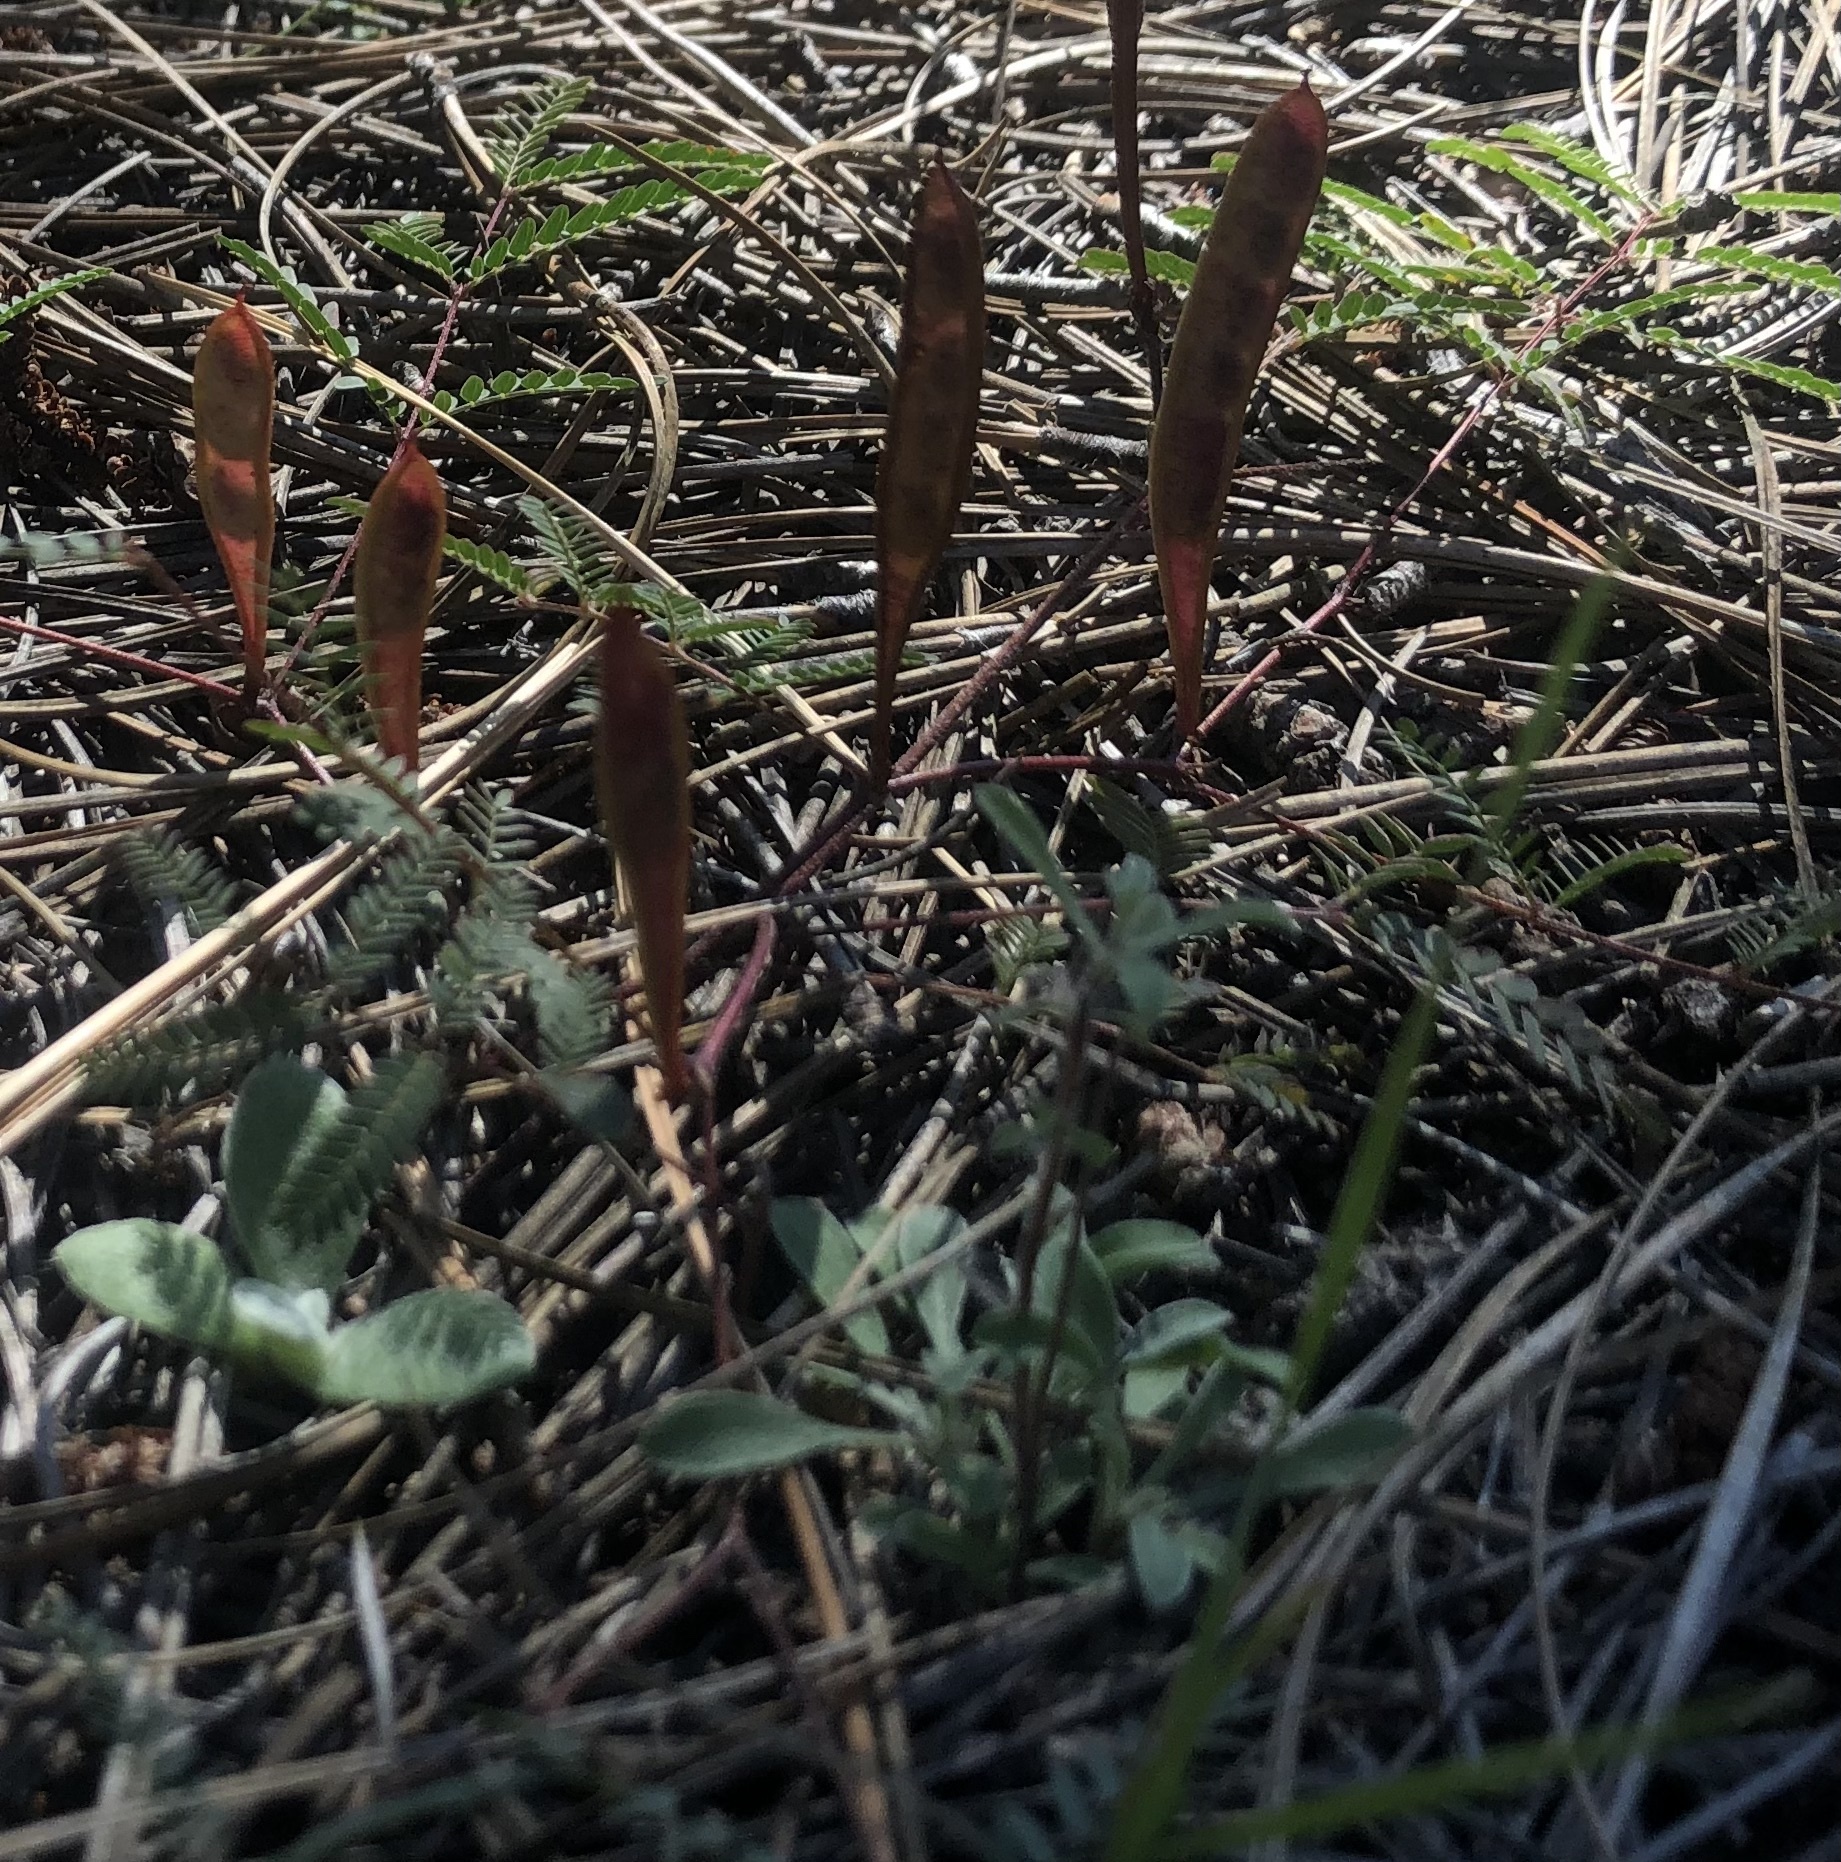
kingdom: Plantae
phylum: Tracheophyta
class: Magnoliopsida
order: Fabales
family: Fabaceae
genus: Calliandra
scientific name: Calliandra humilis
